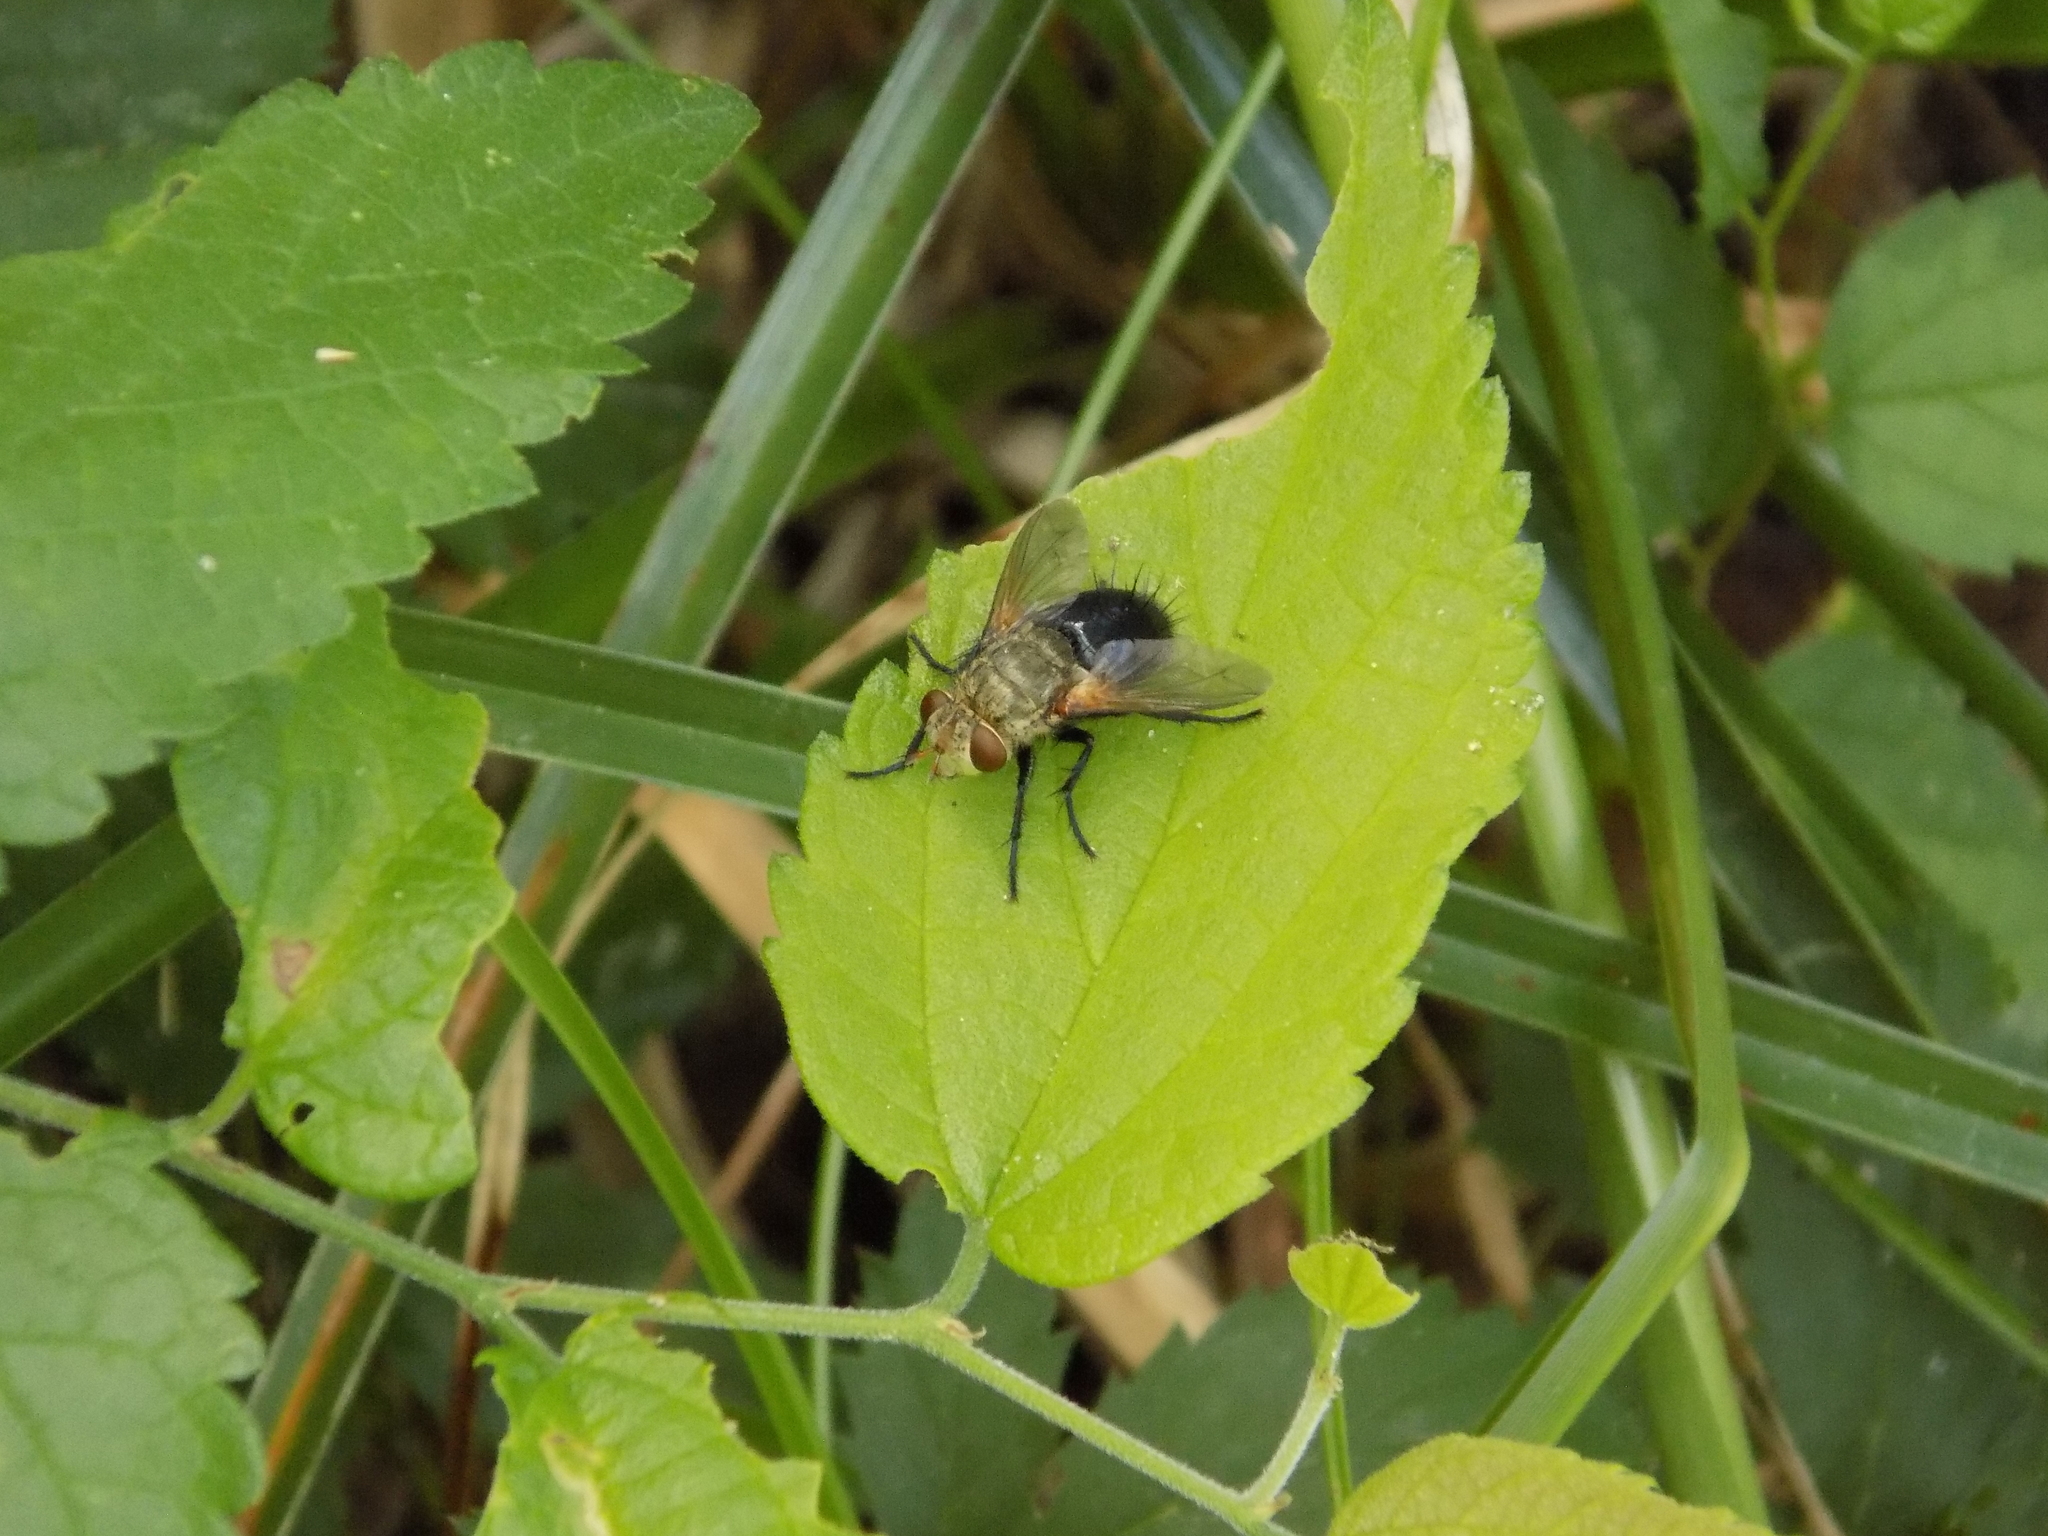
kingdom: Animalia
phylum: Arthropoda
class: Insecta
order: Diptera
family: Tachinidae
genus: Archytas
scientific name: Archytas apicifer
